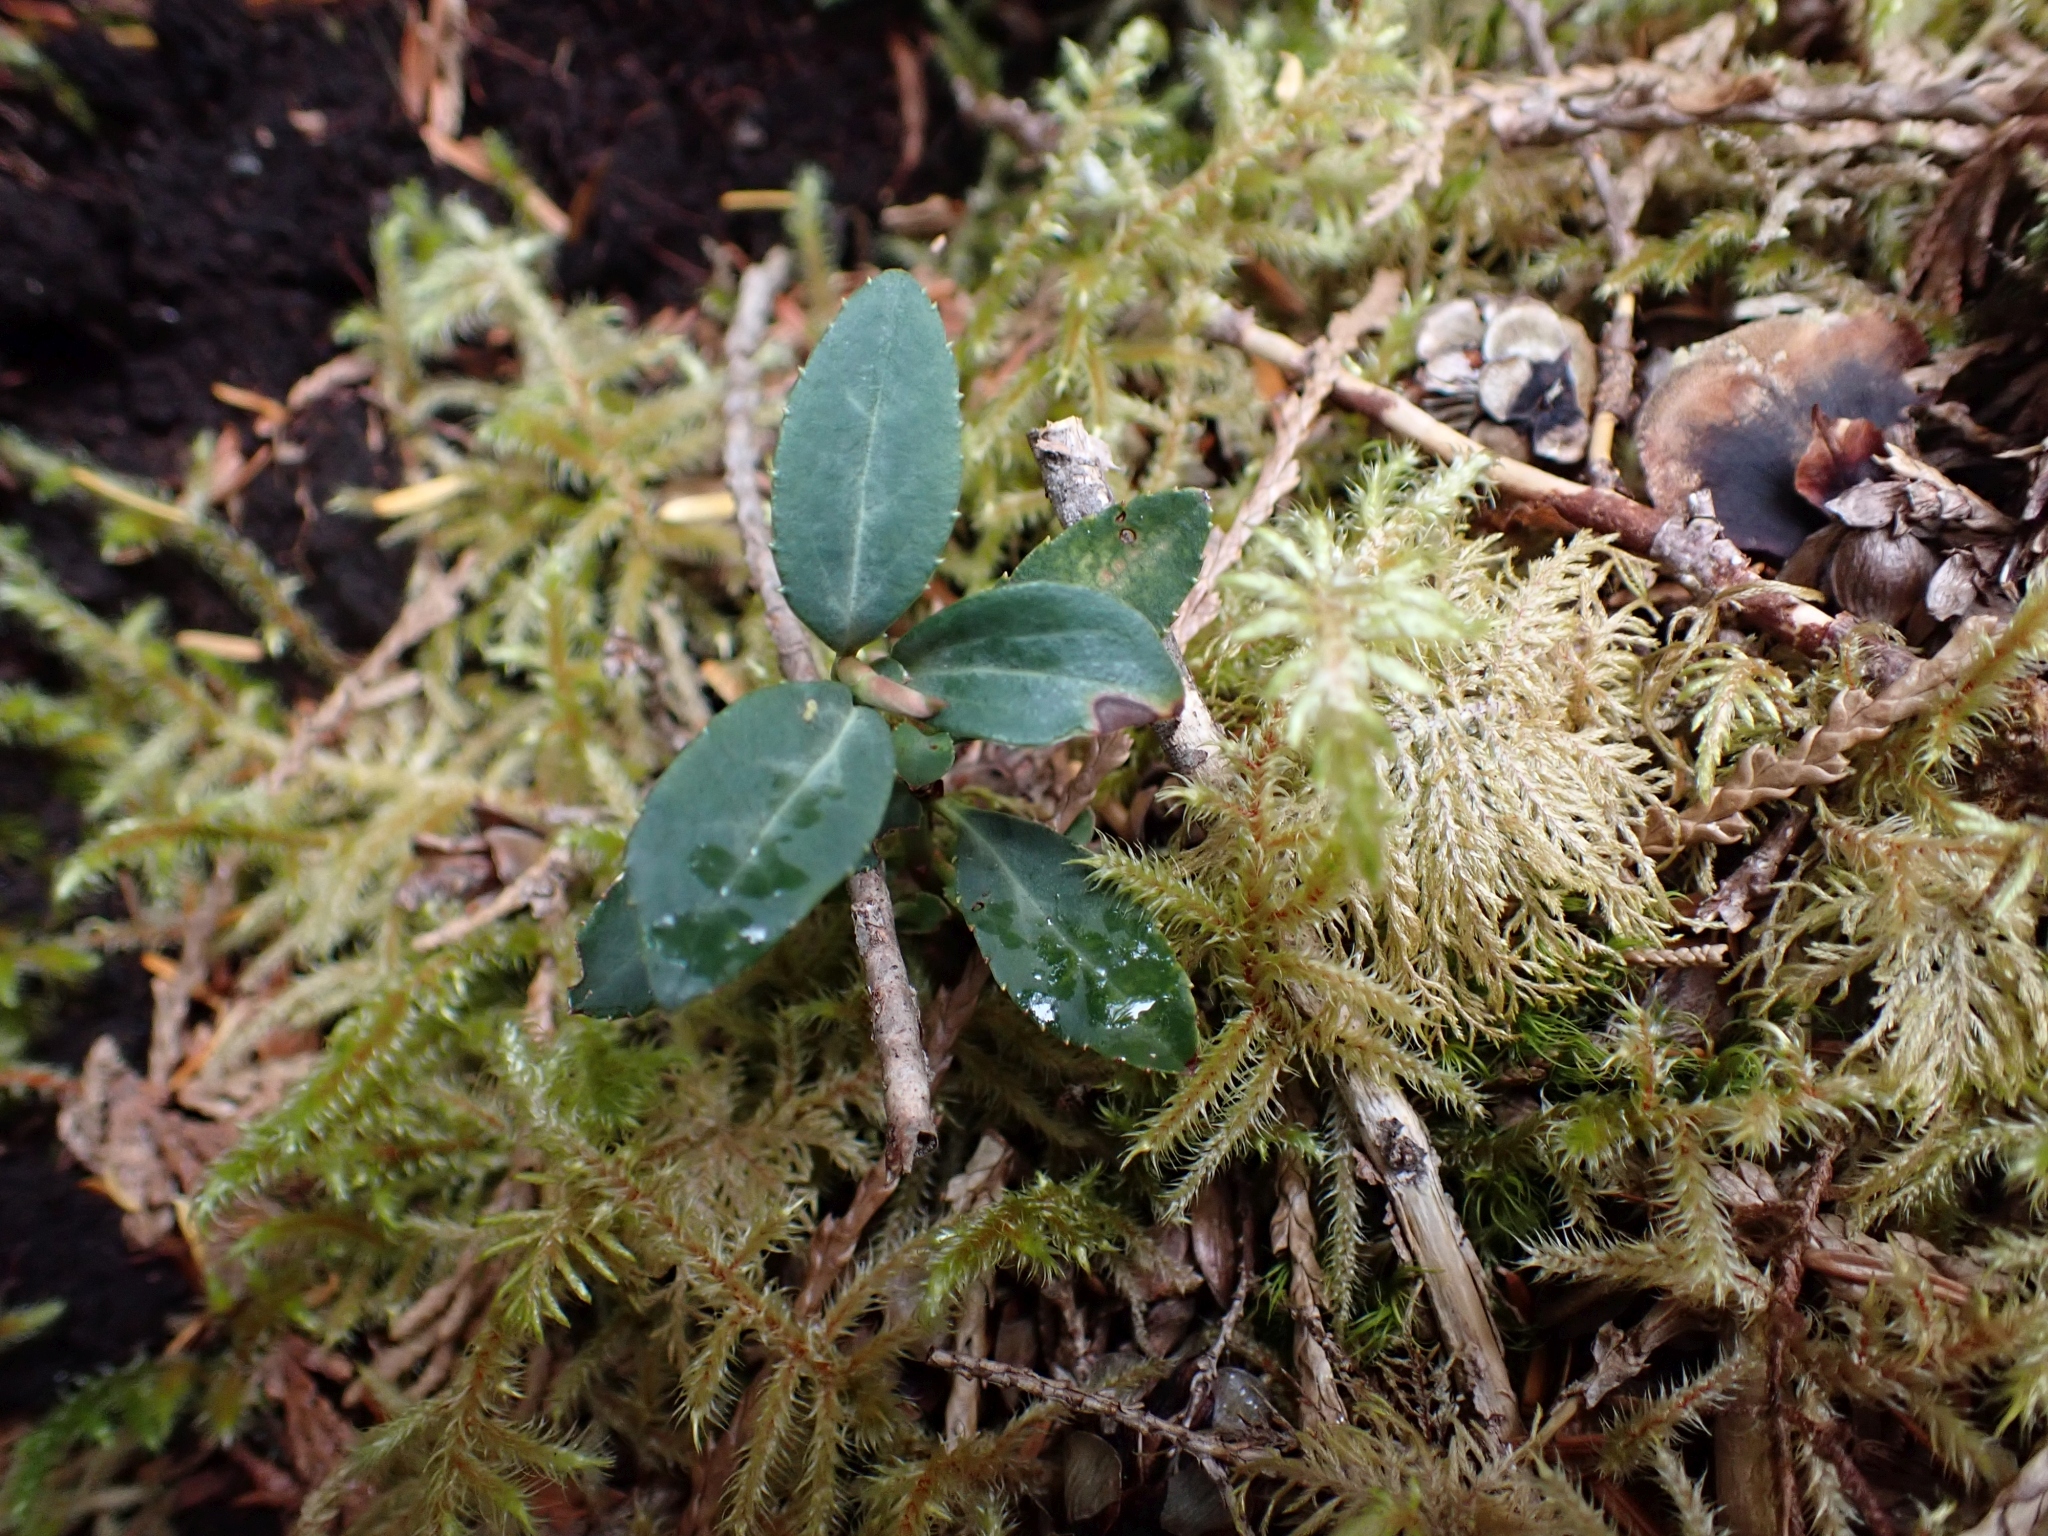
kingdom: Plantae
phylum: Tracheophyta
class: Magnoliopsida
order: Ericales
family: Ericaceae
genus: Chimaphila
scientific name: Chimaphila menziesii
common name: Menzies' pipsissewa
